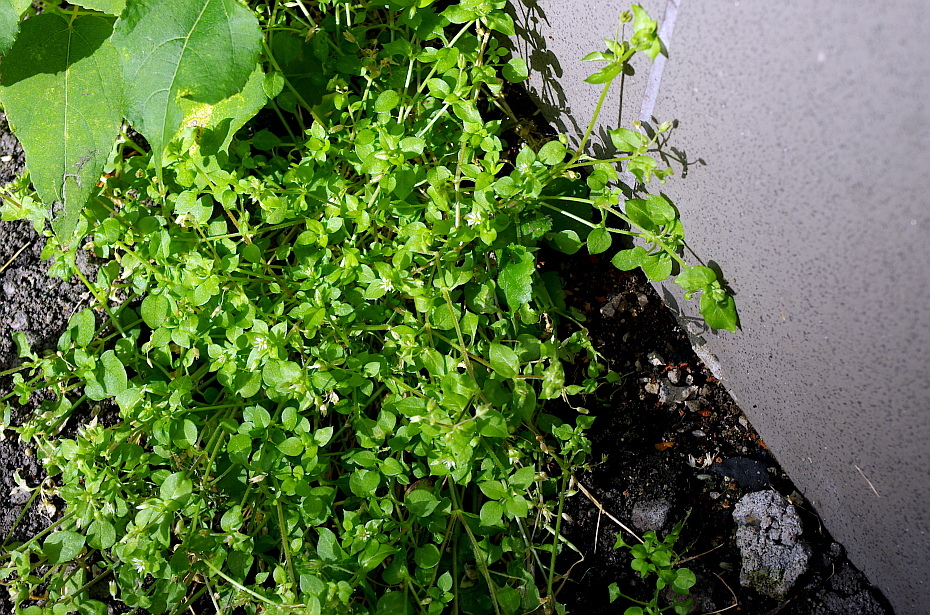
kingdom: Plantae
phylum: Tracheophyta
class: Magnoliopsida
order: Caryophyllales
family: Caryophyllaceae
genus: Stellaria
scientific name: Stellaria media
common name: Common chickweed
